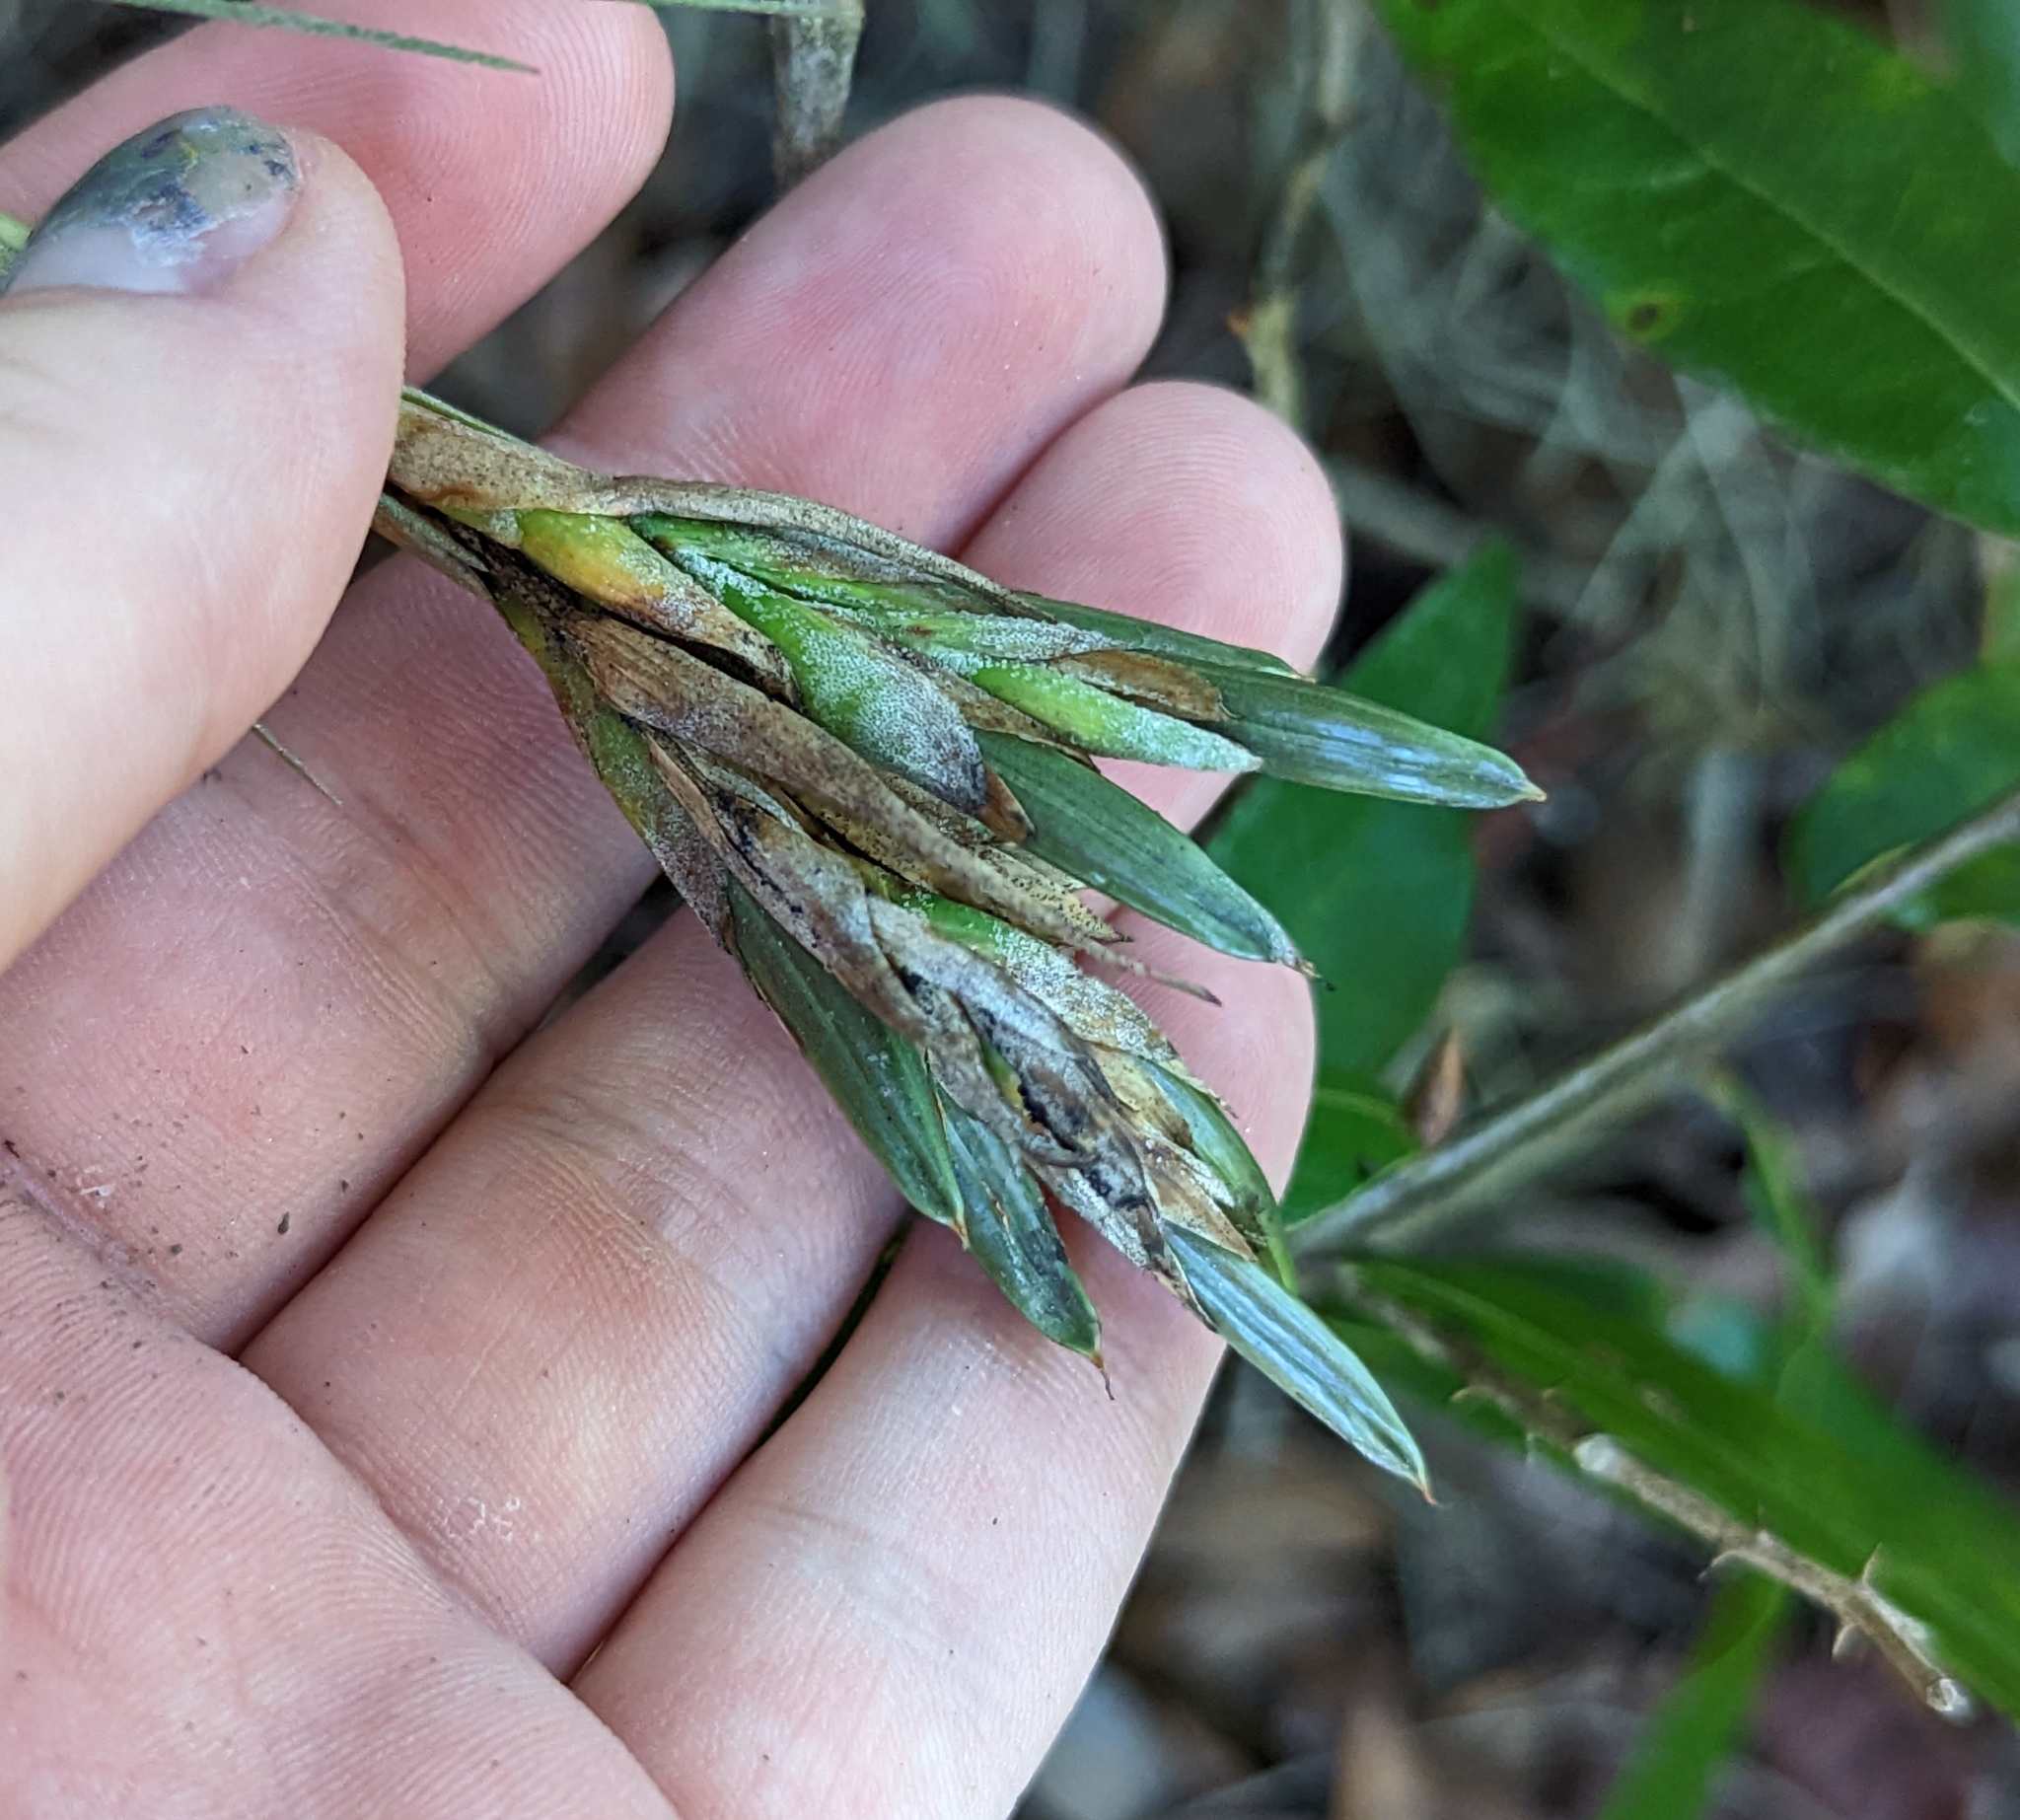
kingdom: Plantae
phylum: Tracheophyta
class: Liliopsida
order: Poales
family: Bromeliaceae
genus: Tillandsia
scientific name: Tillandsia bartramii
